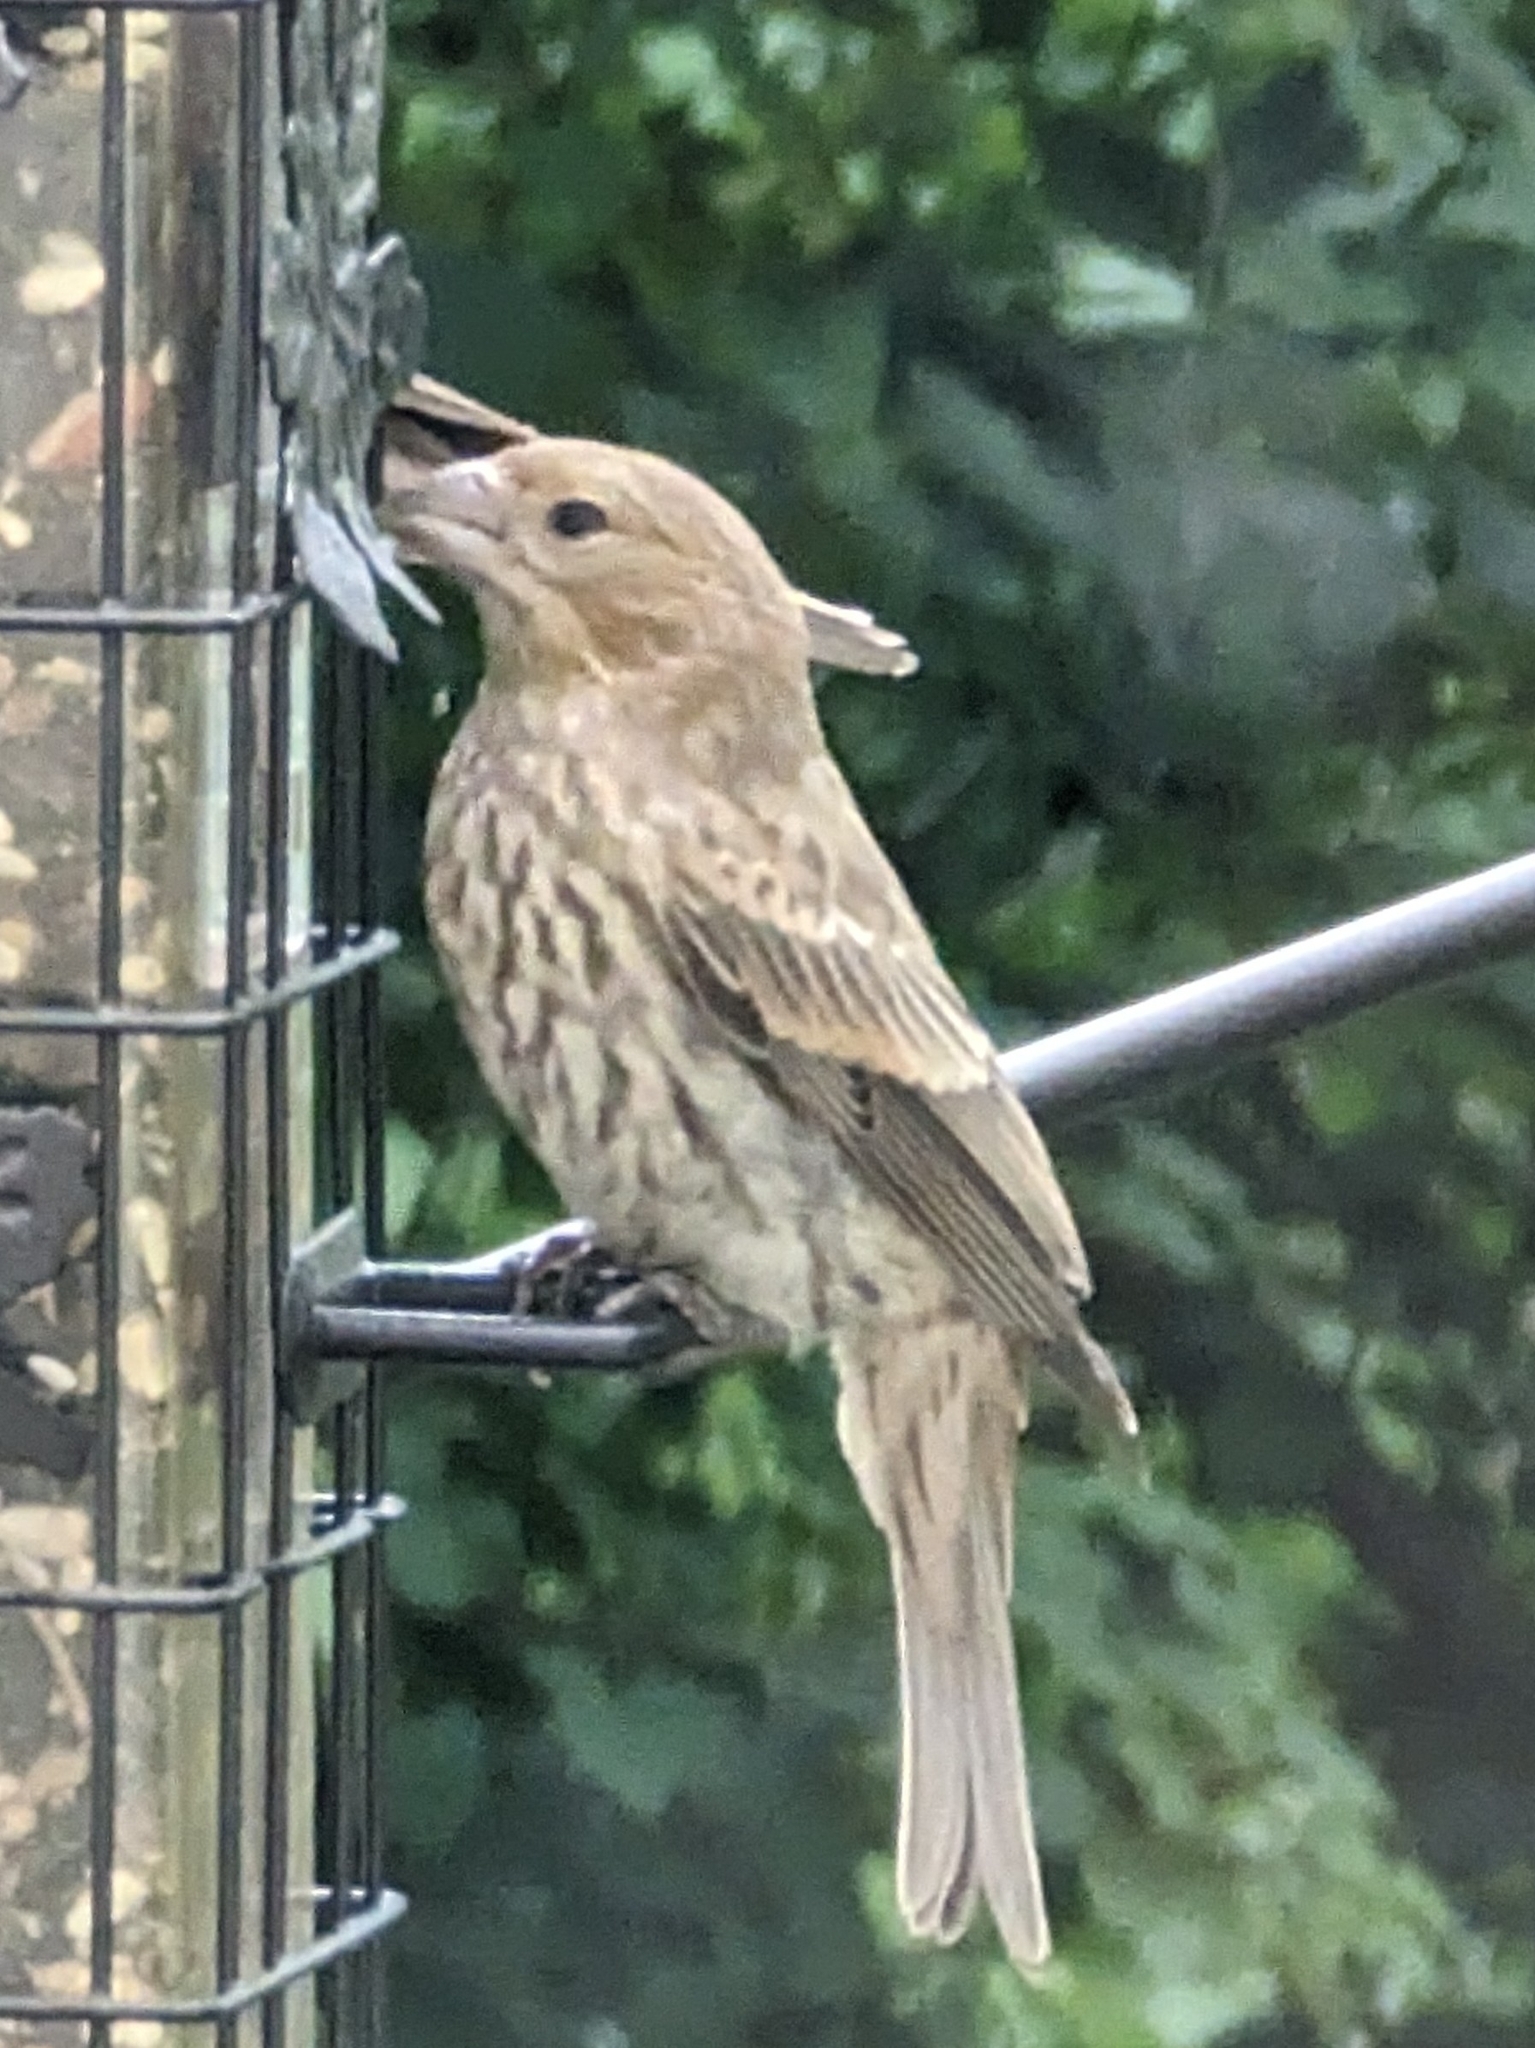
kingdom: Animalia
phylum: Chordata
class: Aves
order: Passeriformes
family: Fringillidae
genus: Haemorhous
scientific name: Haemorhous mexicanus
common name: House finch
